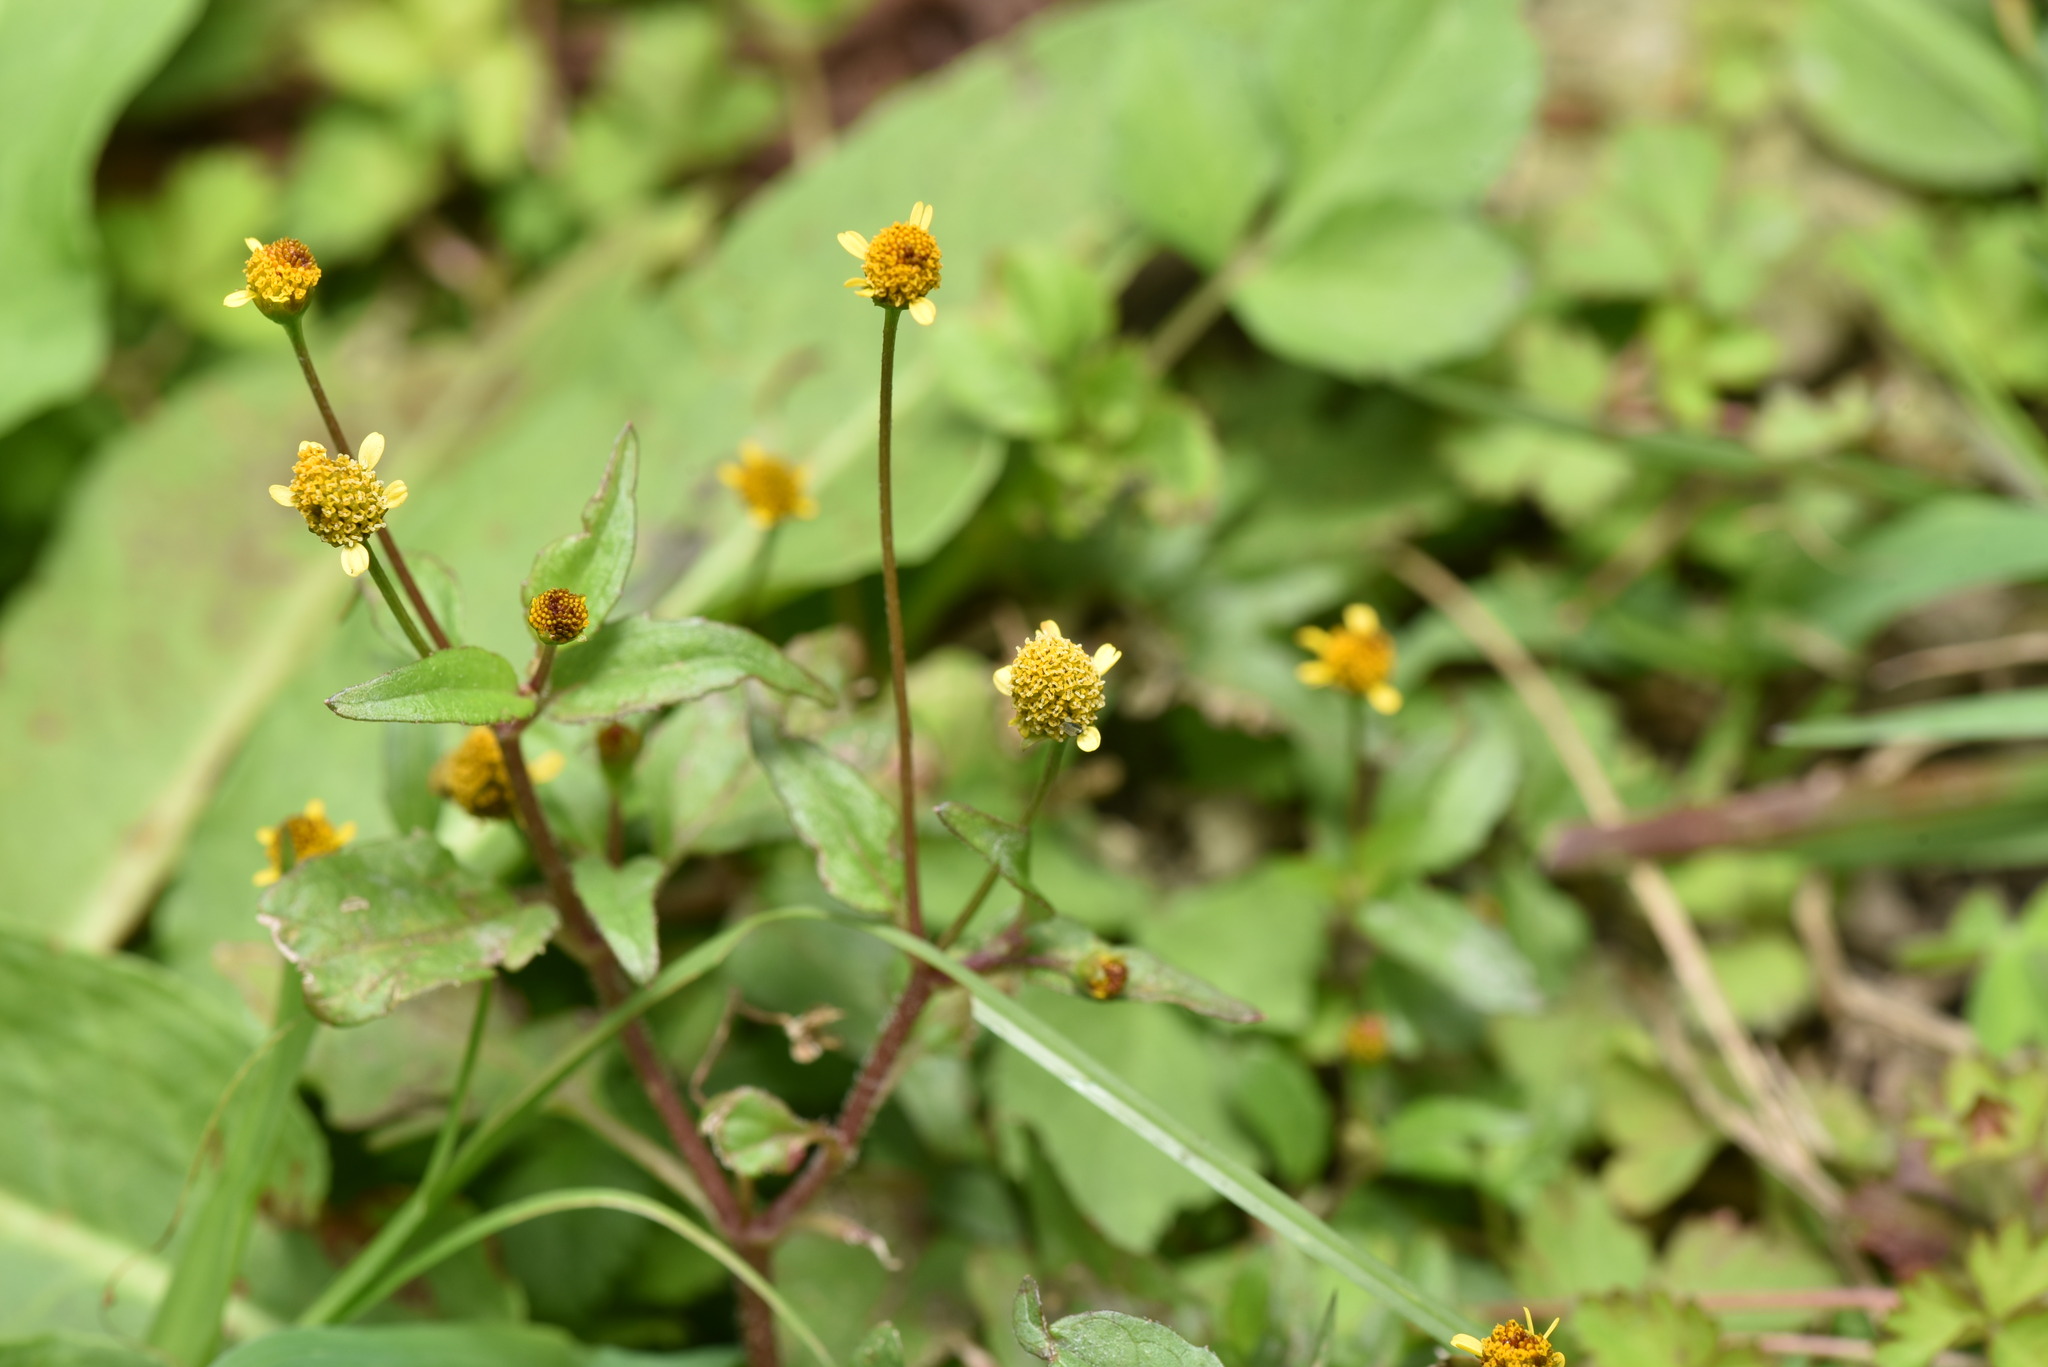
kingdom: Plantae
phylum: Tracheophyta
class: Magnoliopsida
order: Asterales
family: Asteraceae
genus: Acmella
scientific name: Acmella uliginosa
